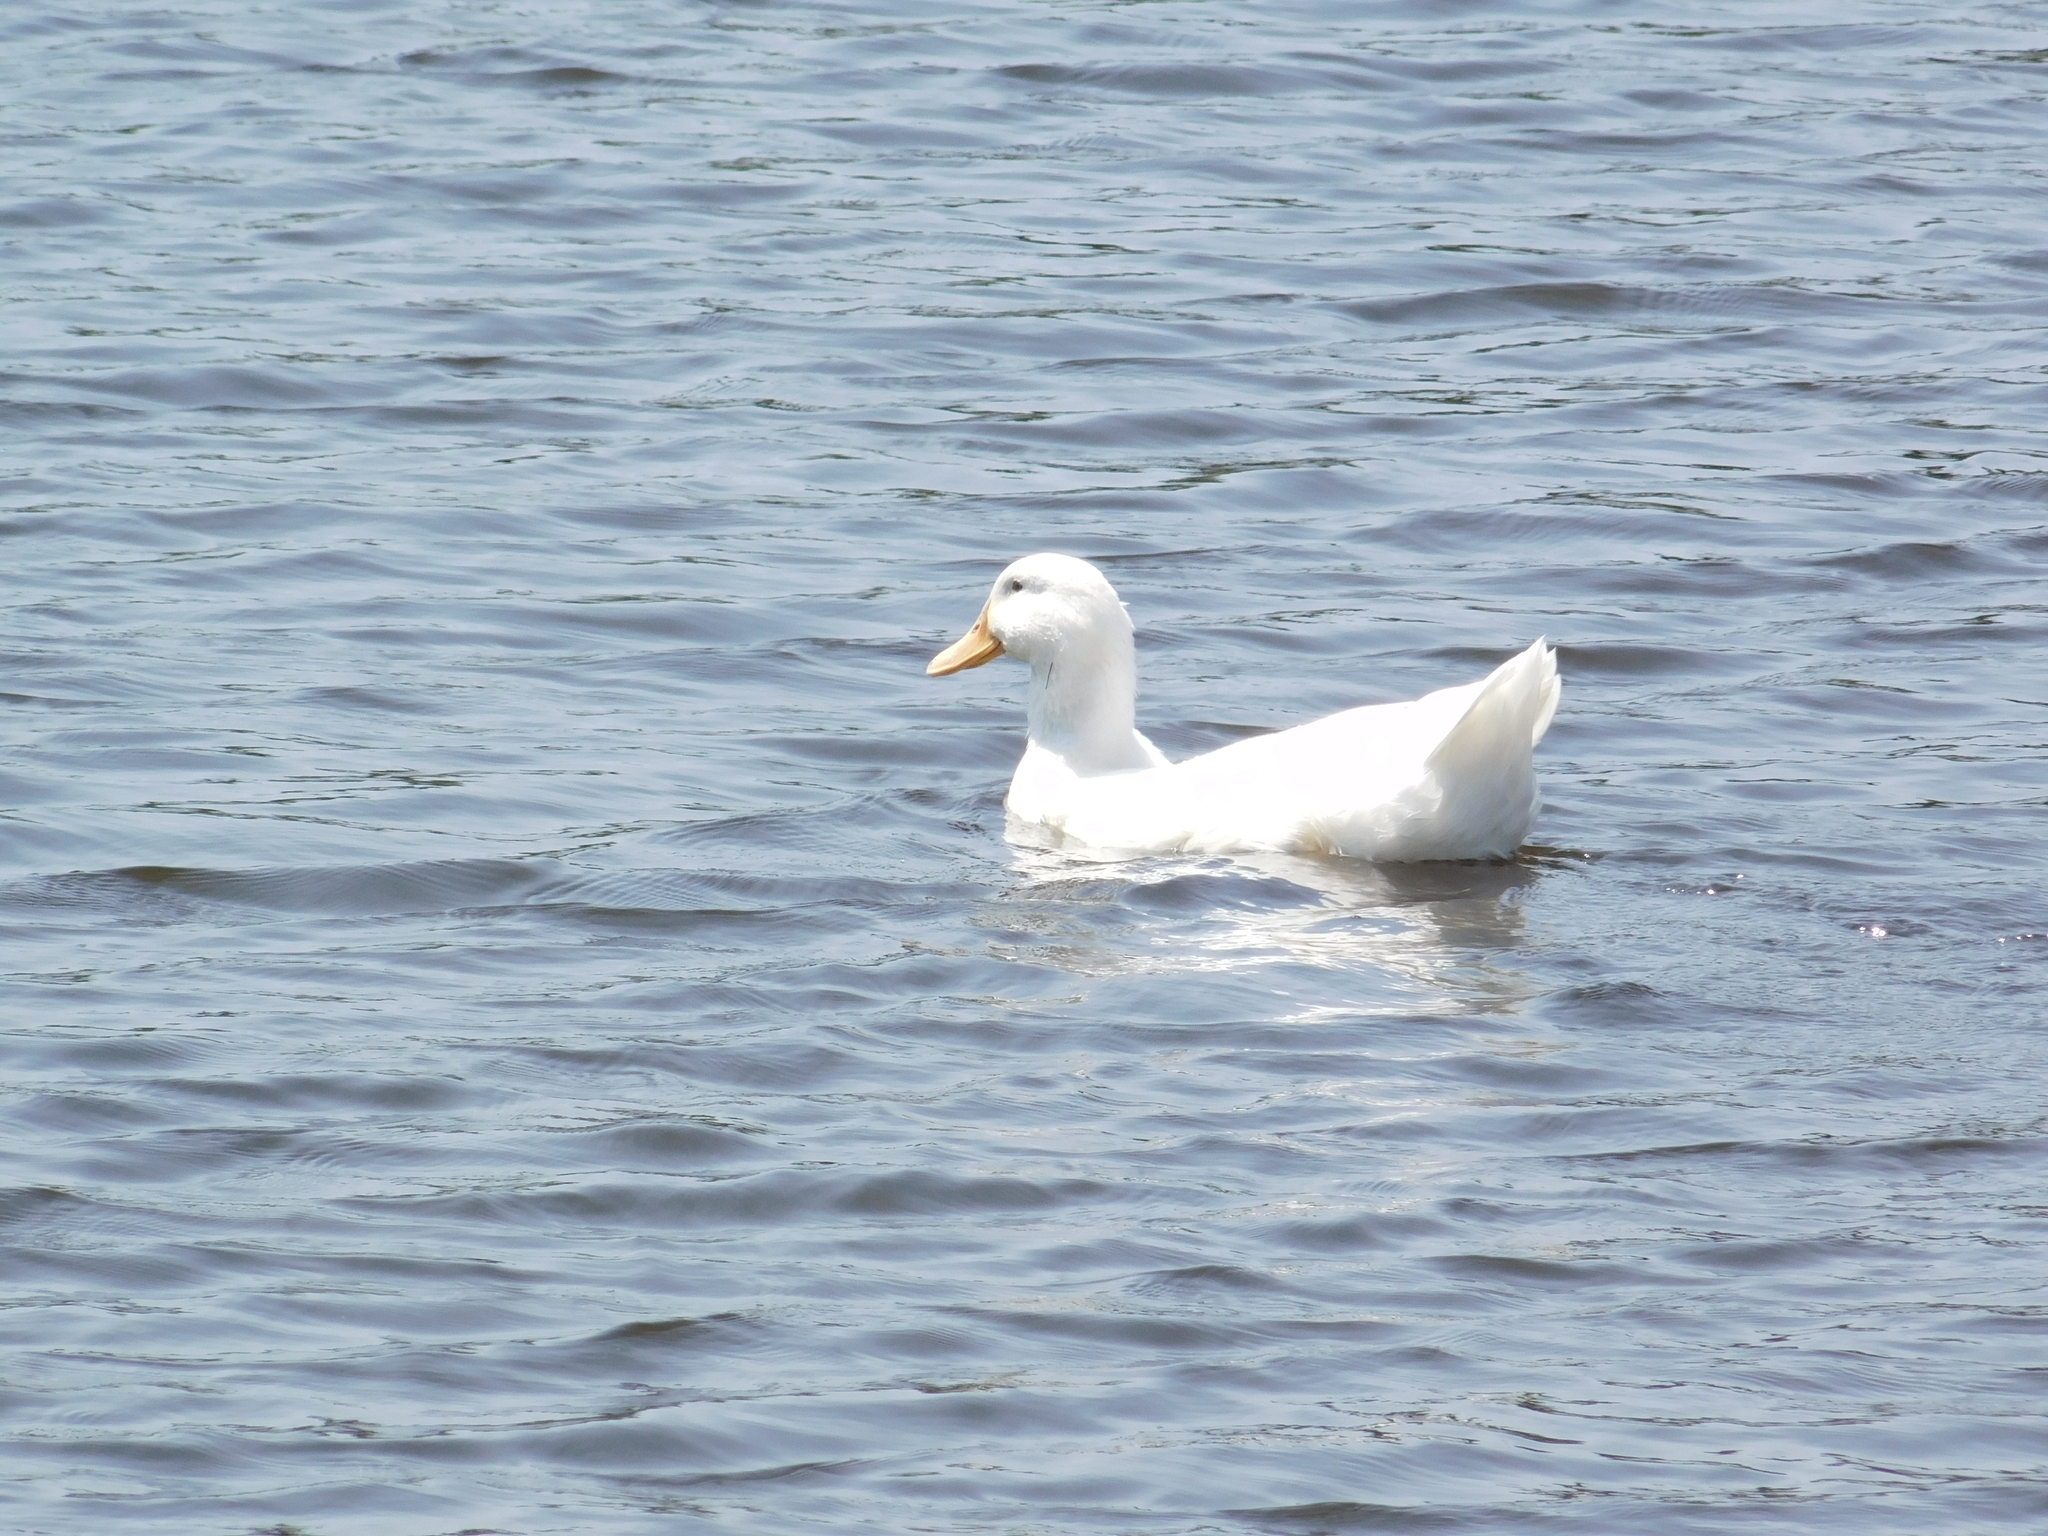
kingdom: Animalia
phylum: Chordata
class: Aves
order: Anseriformes
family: Anatidae
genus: Anas
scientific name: Anas platyrhynchos
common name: Mallard
